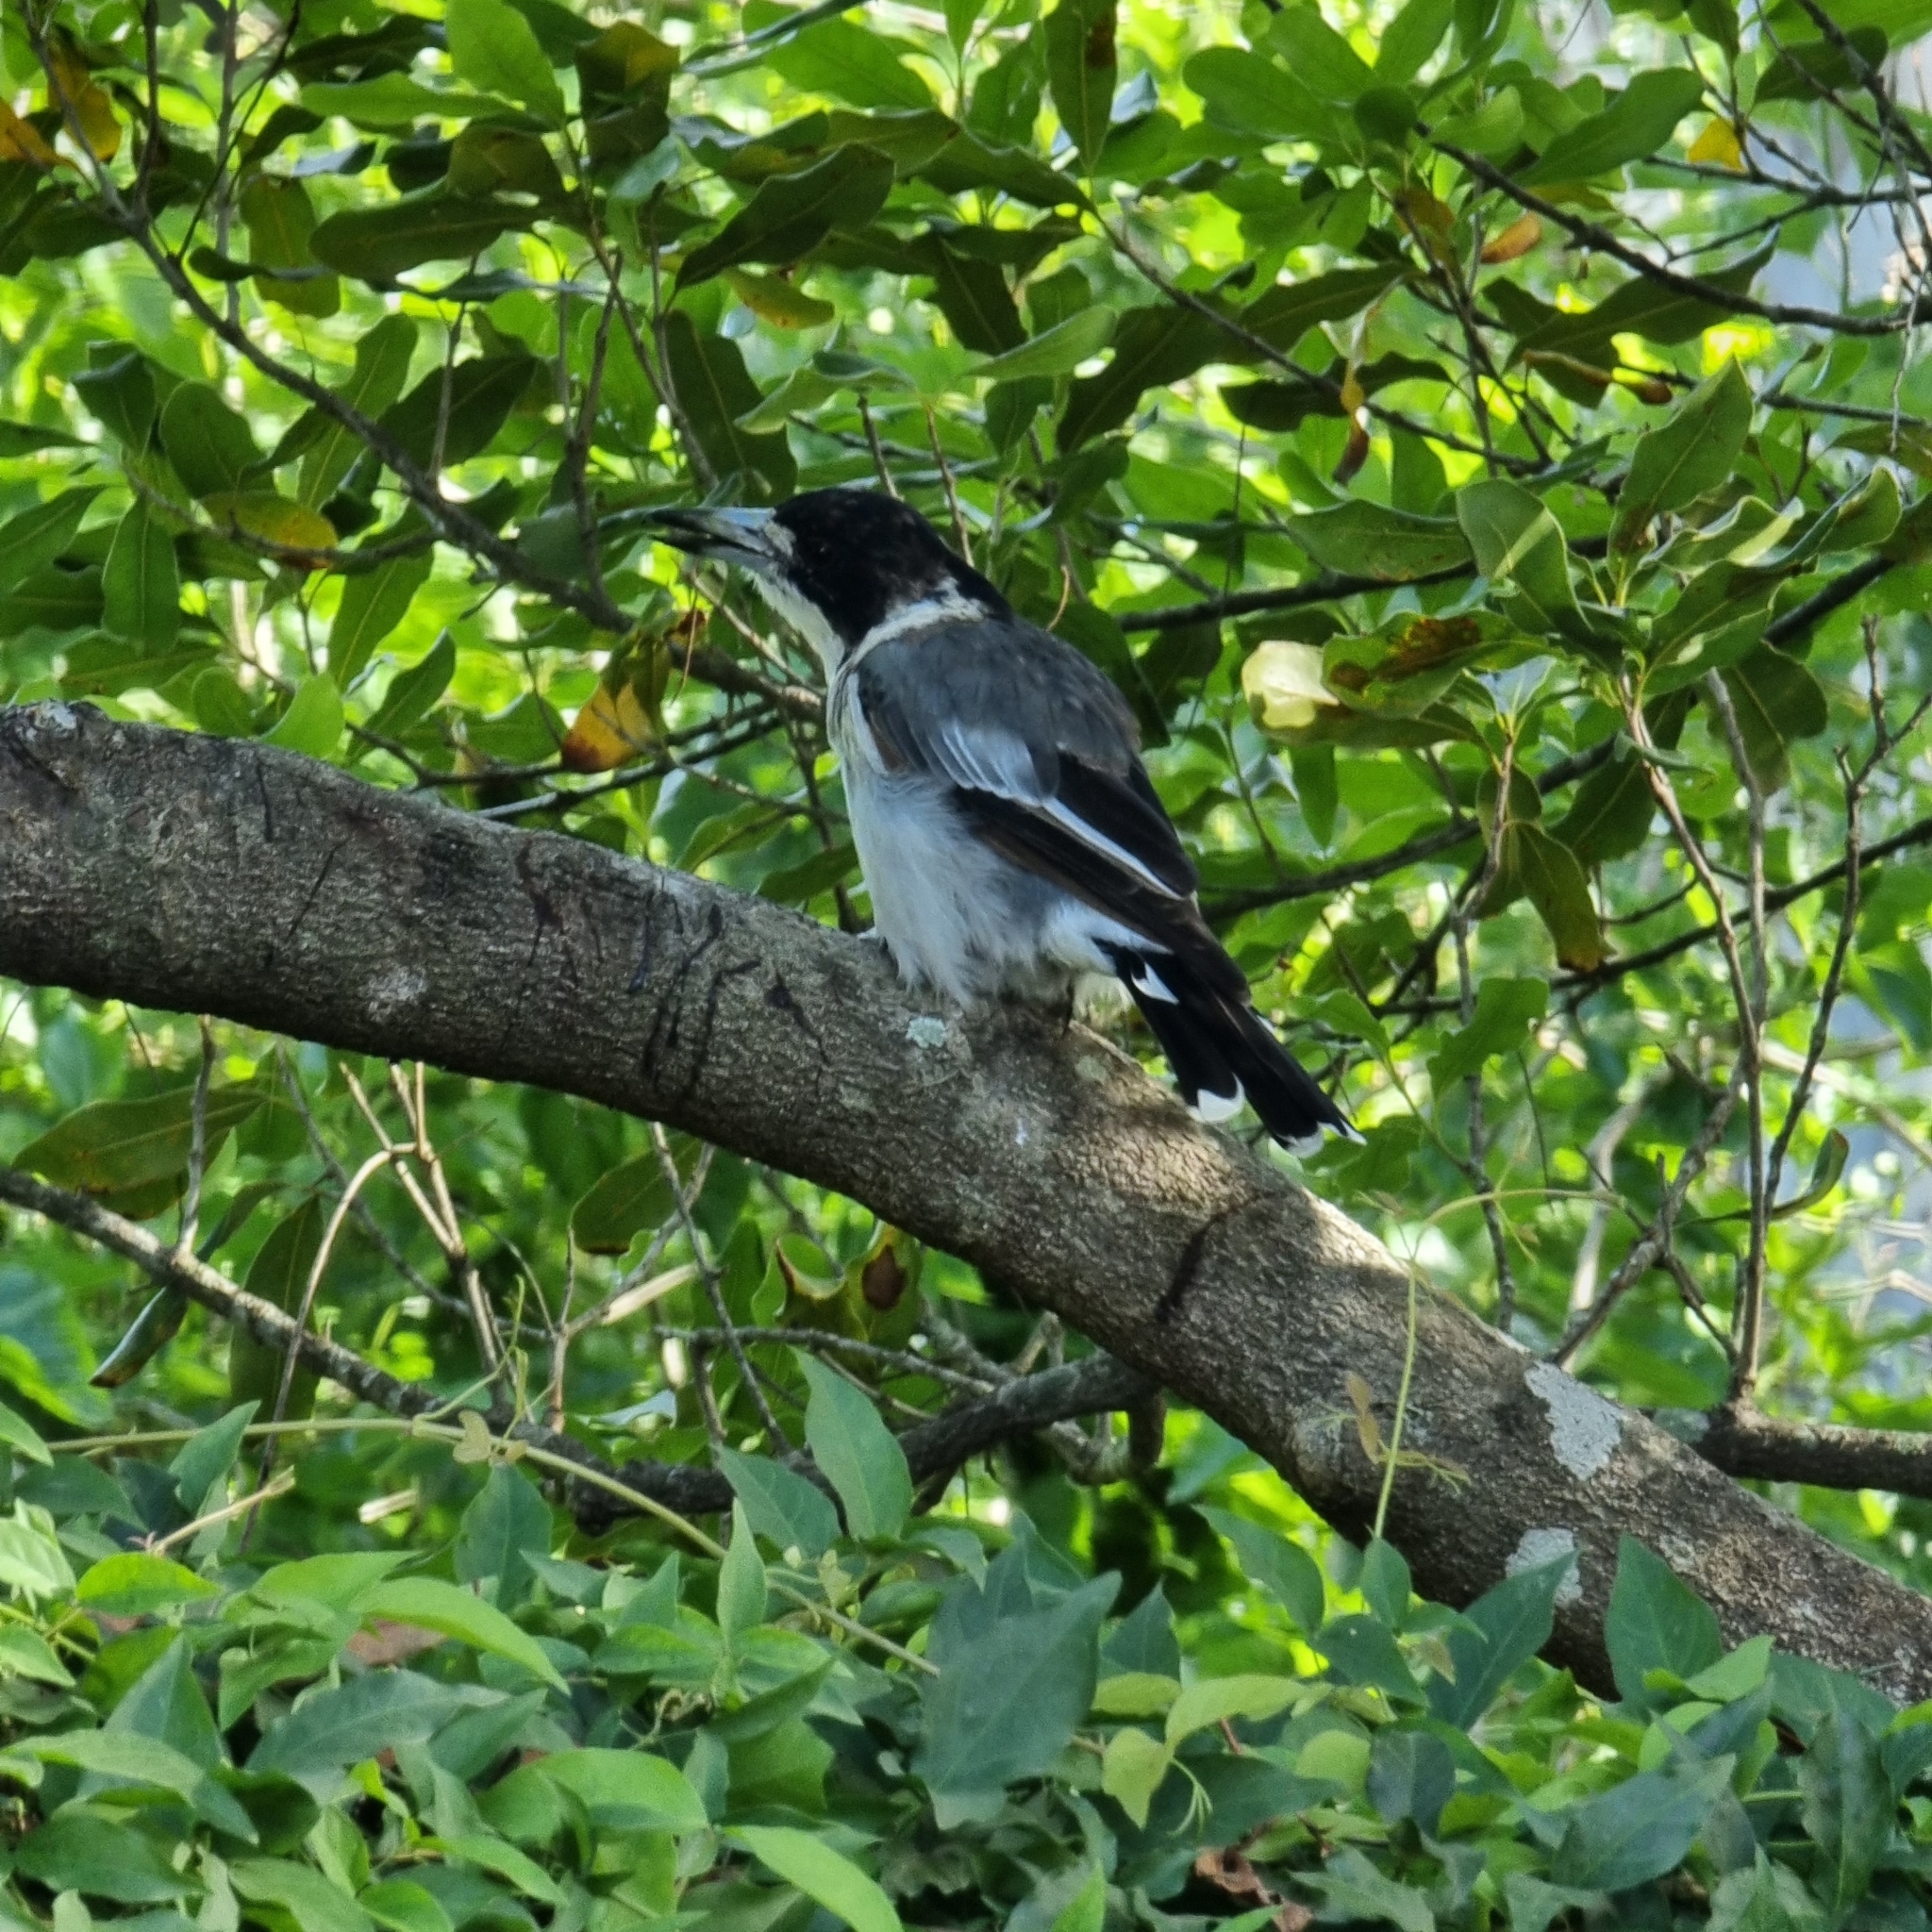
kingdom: Animalia
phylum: Chordata
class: Aves
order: Passeriformes
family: Cracticidae
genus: Cracticus
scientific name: Cracticus torquatus
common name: Grey butcherbird
